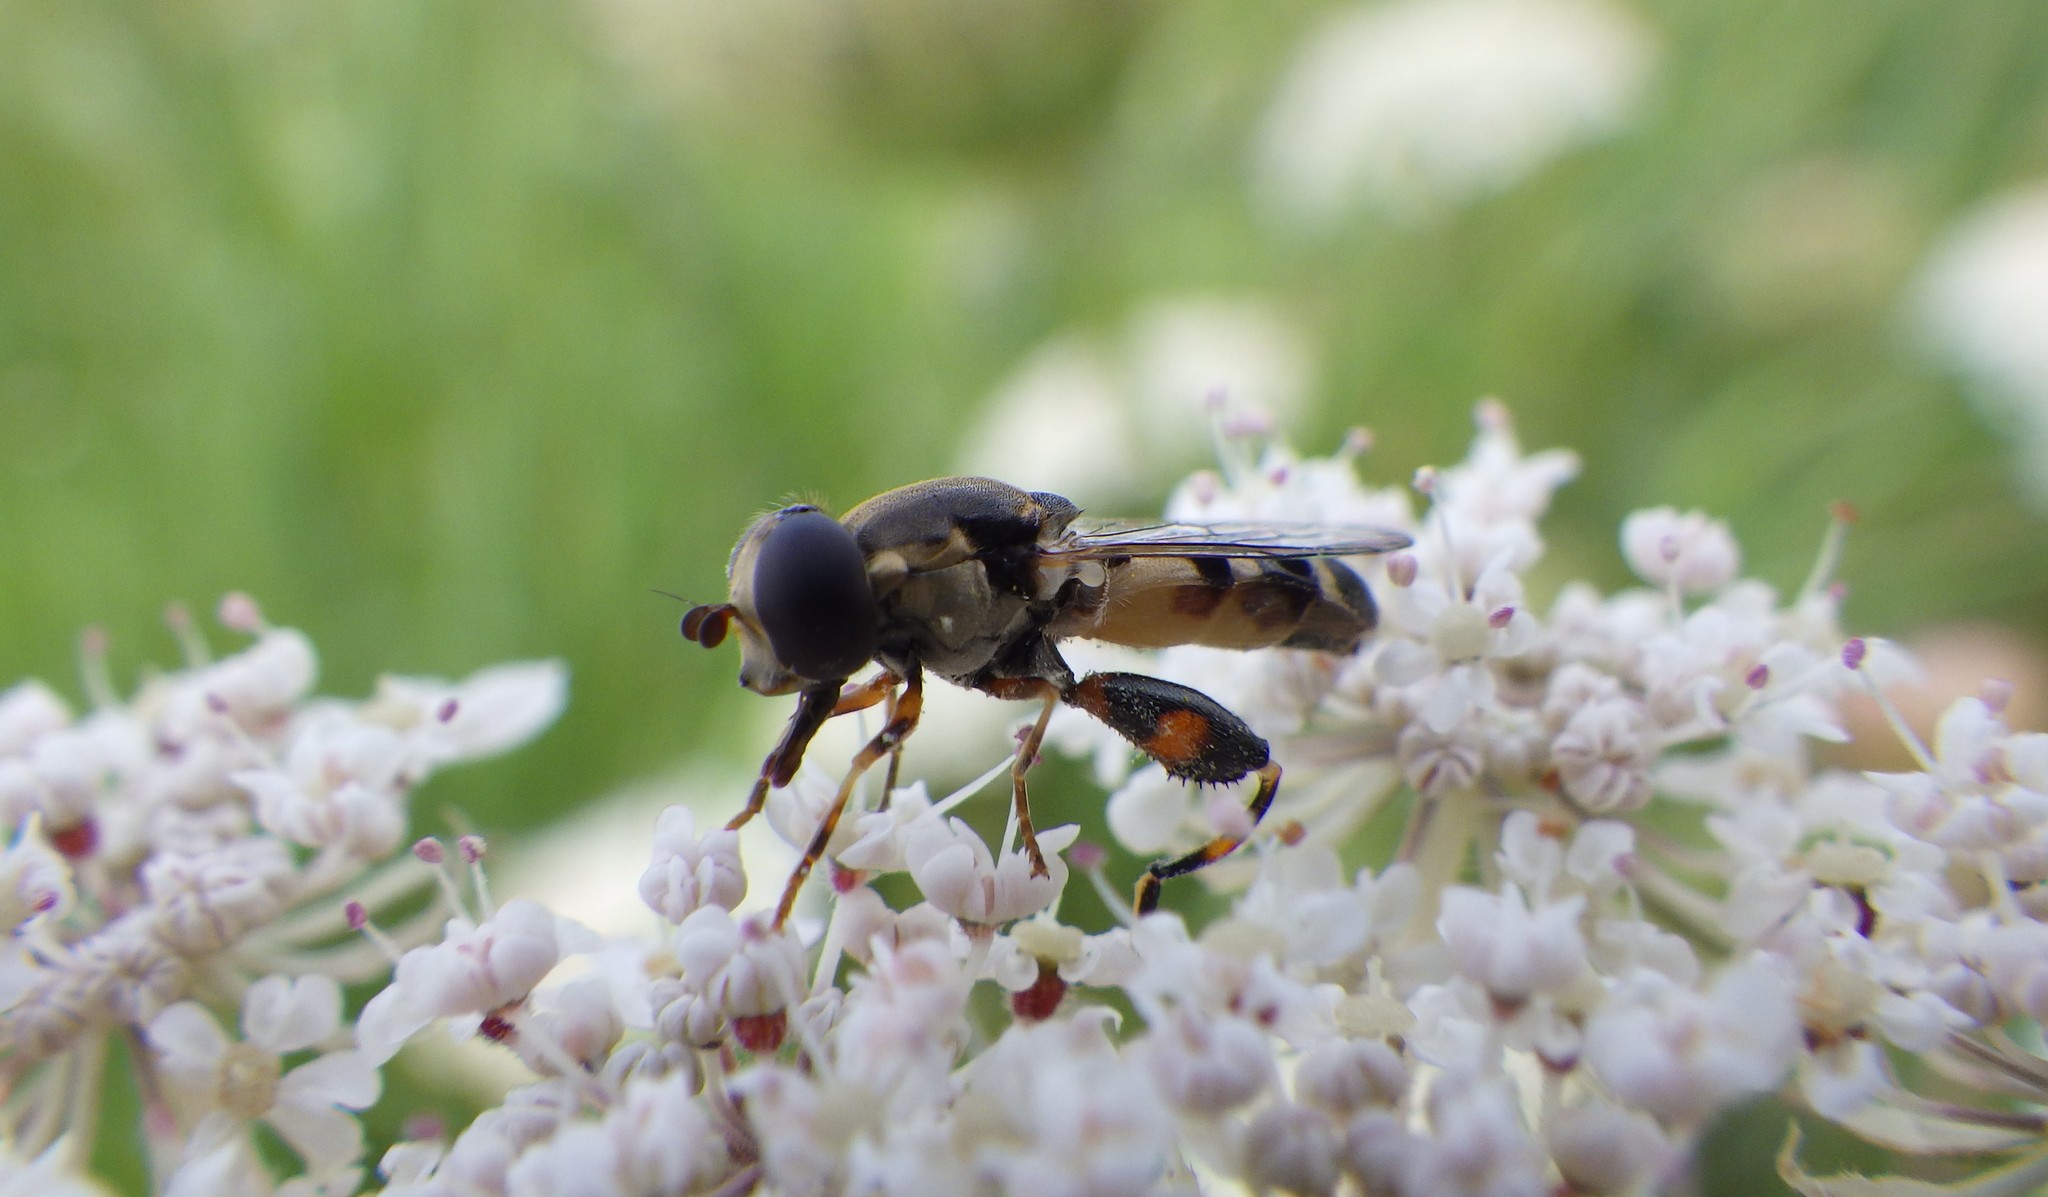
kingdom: Animalia
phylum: Arthropoda
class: Insecta
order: Diptera
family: Syrphidae
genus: Syritta
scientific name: Syritta pipiens
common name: Hover fly
